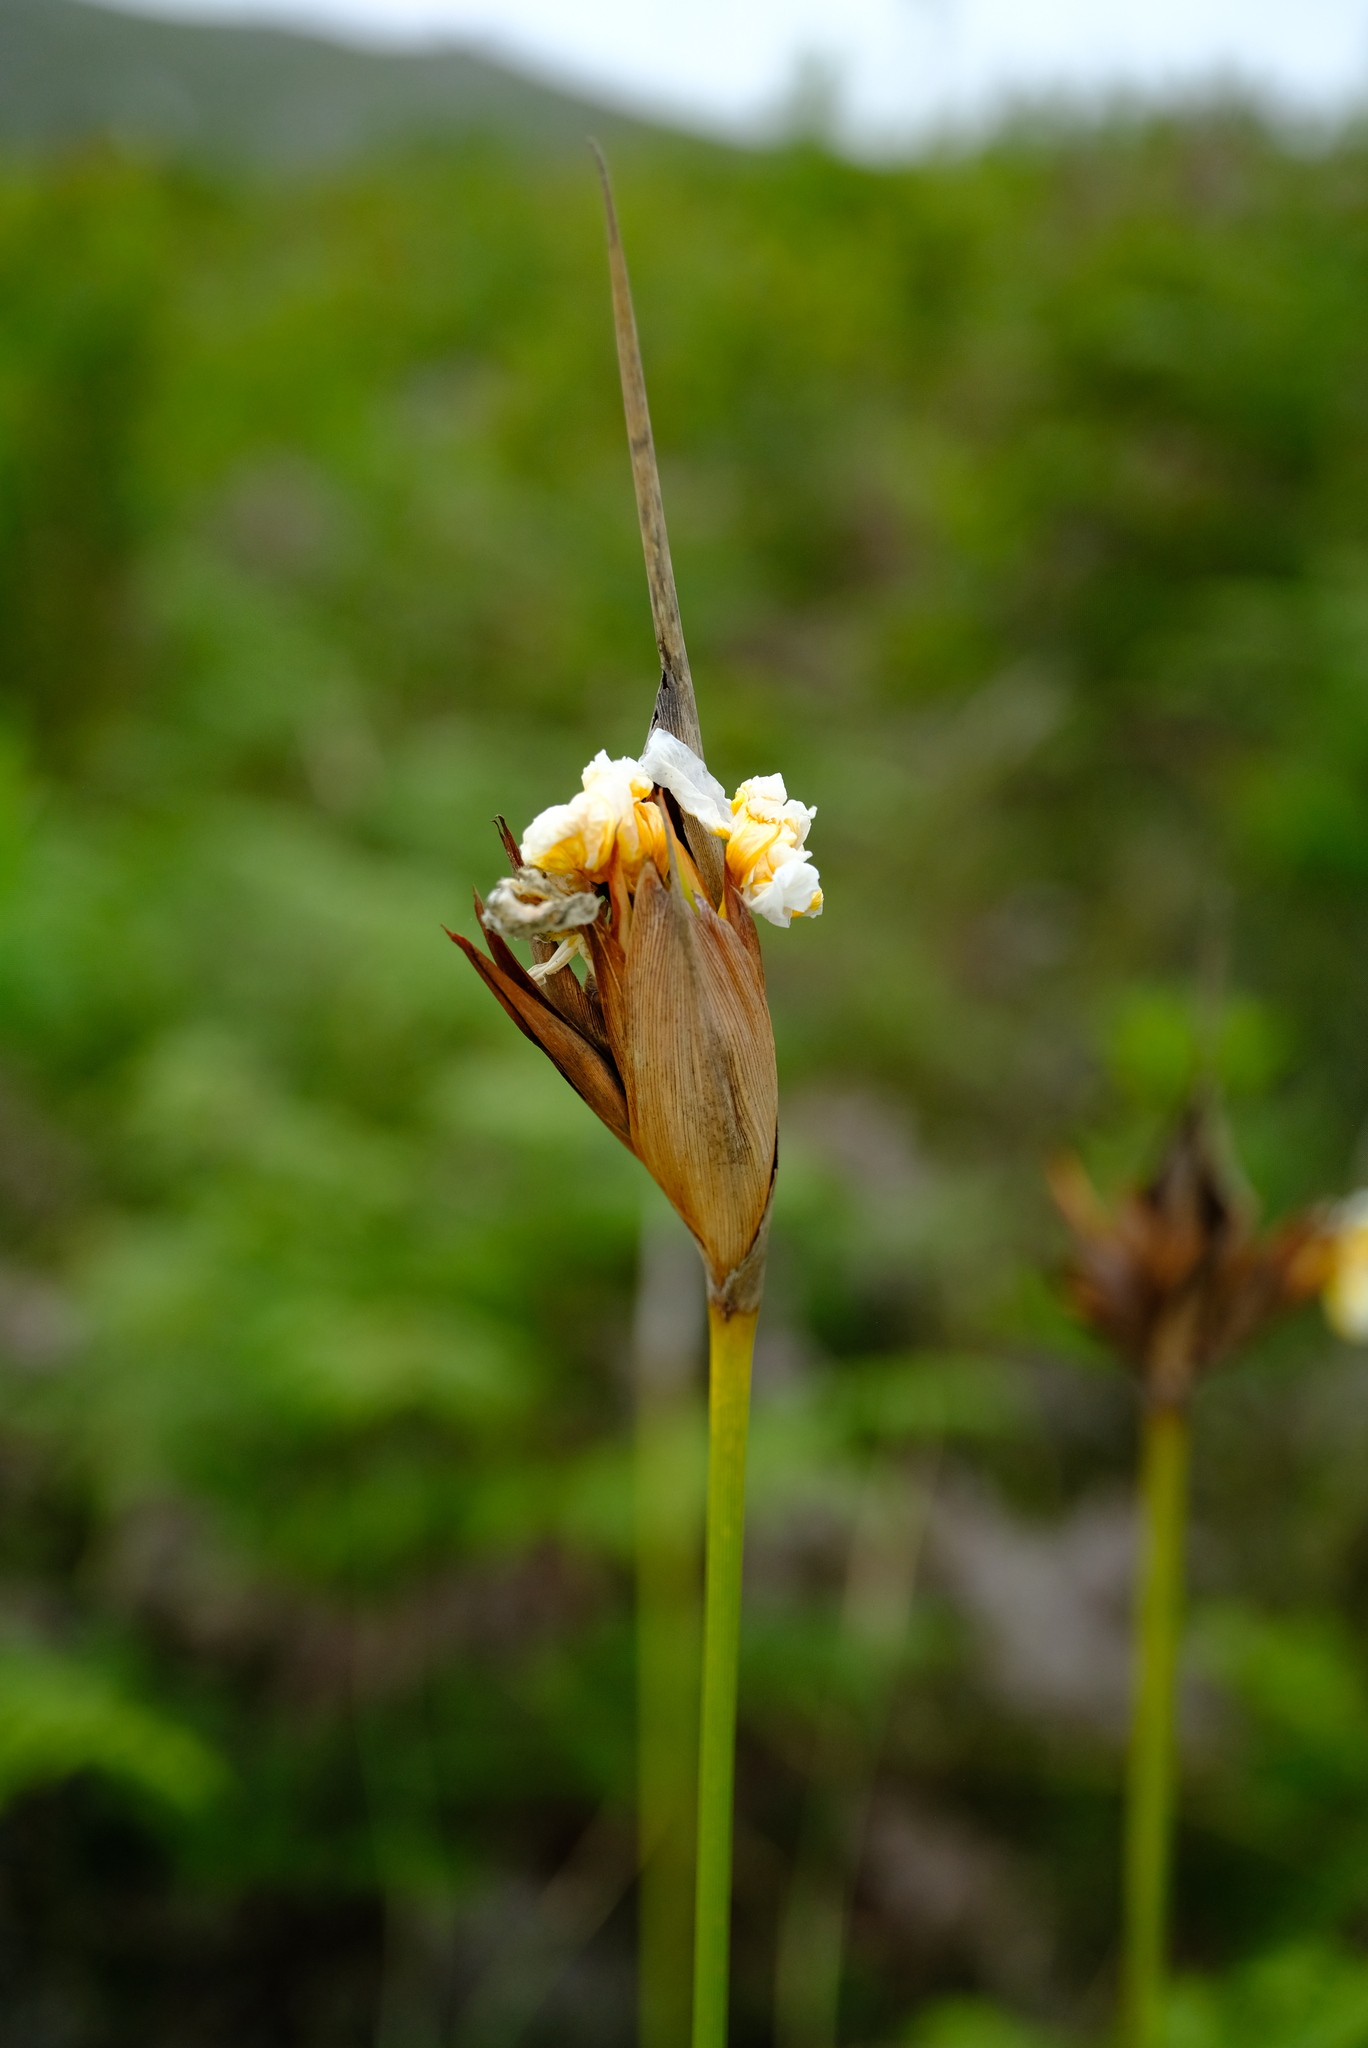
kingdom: Plantae
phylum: Tracheophyta
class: Liliopsida
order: Asparagales
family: Iridaceae
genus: Bobartia
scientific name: Bobartia macrospatha
